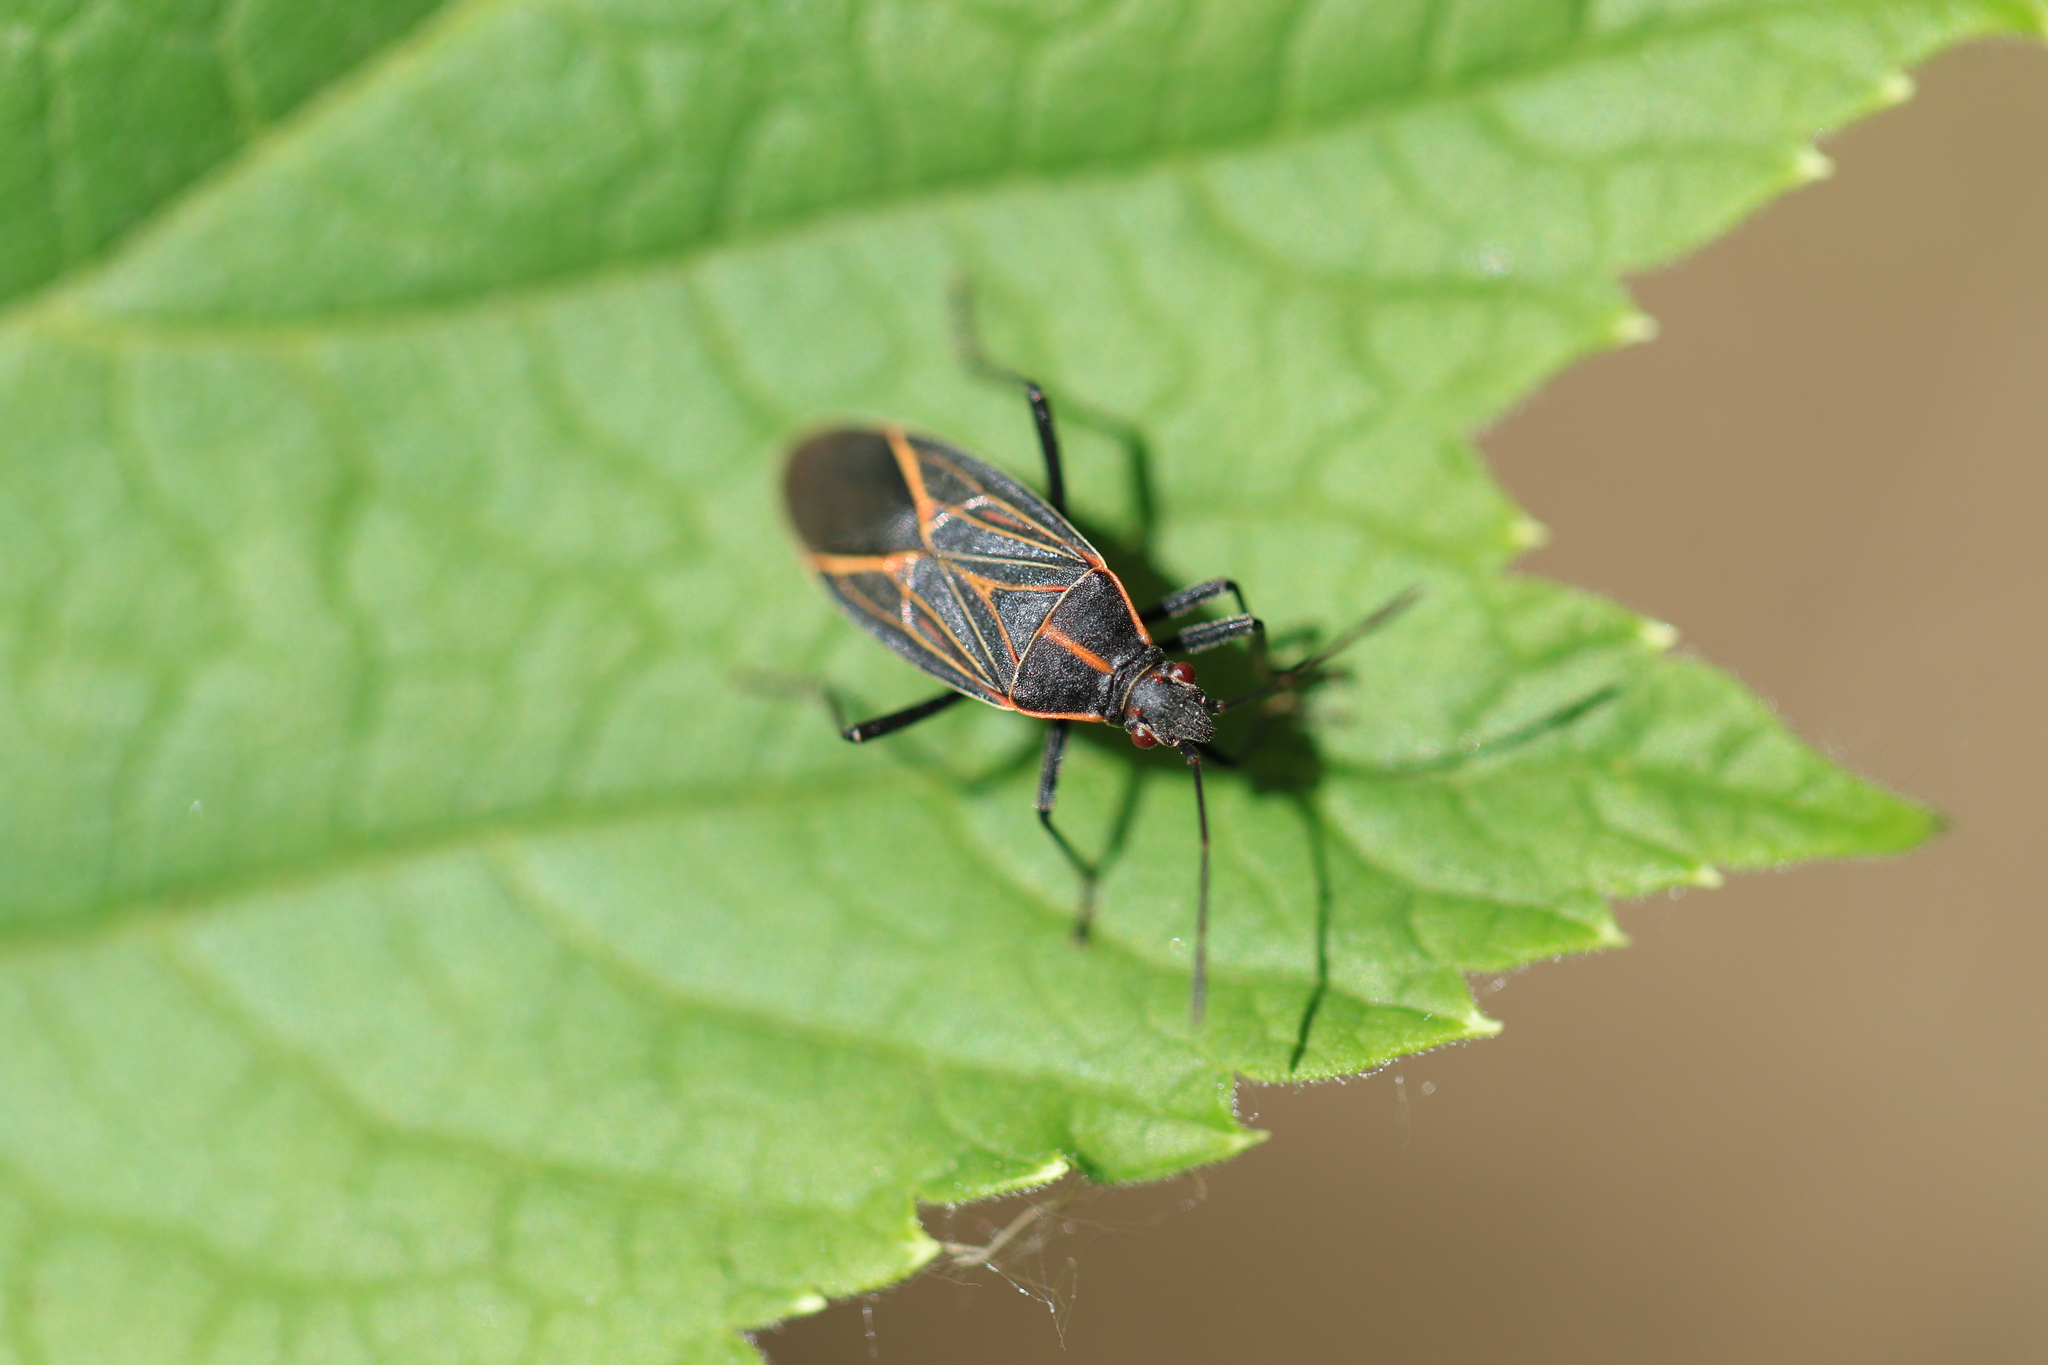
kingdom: Animalia
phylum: Arthropoda
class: Insecta
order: Hemiptera
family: Rhopalidae
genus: Boisea
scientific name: Boisea rubrolineata
